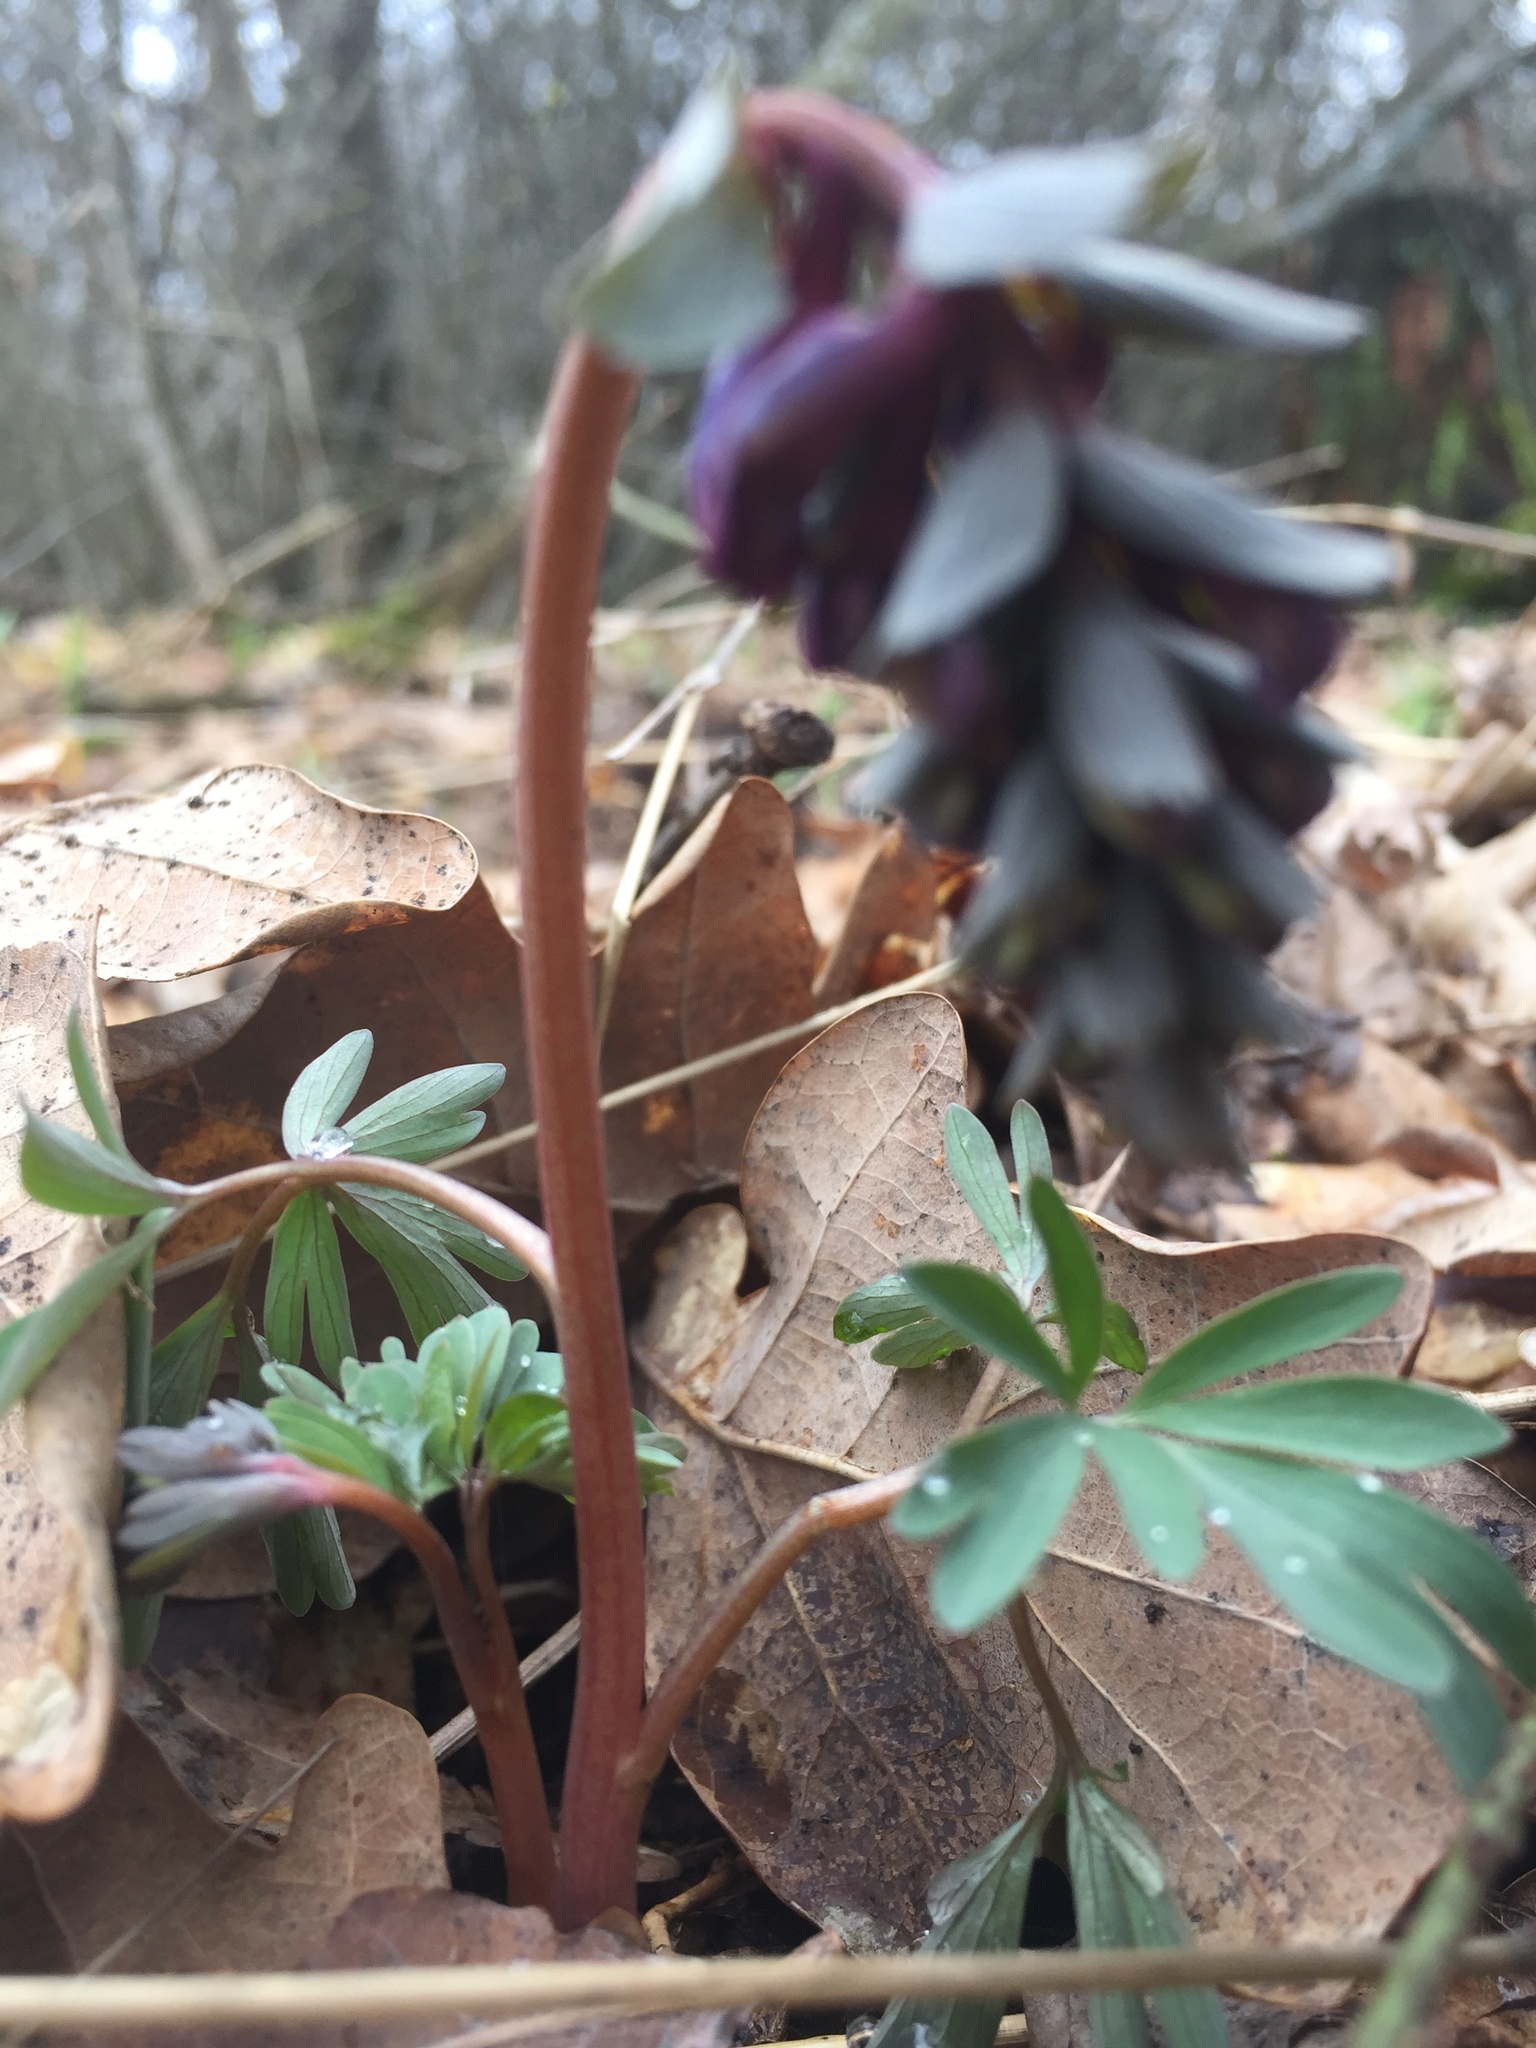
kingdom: Plantae
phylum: Tracheophyta
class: Magnoliopsida
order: Ranunculales
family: Papaveraceae
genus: Corydalis
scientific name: Corydalis solida
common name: Bird-in-a-bush
